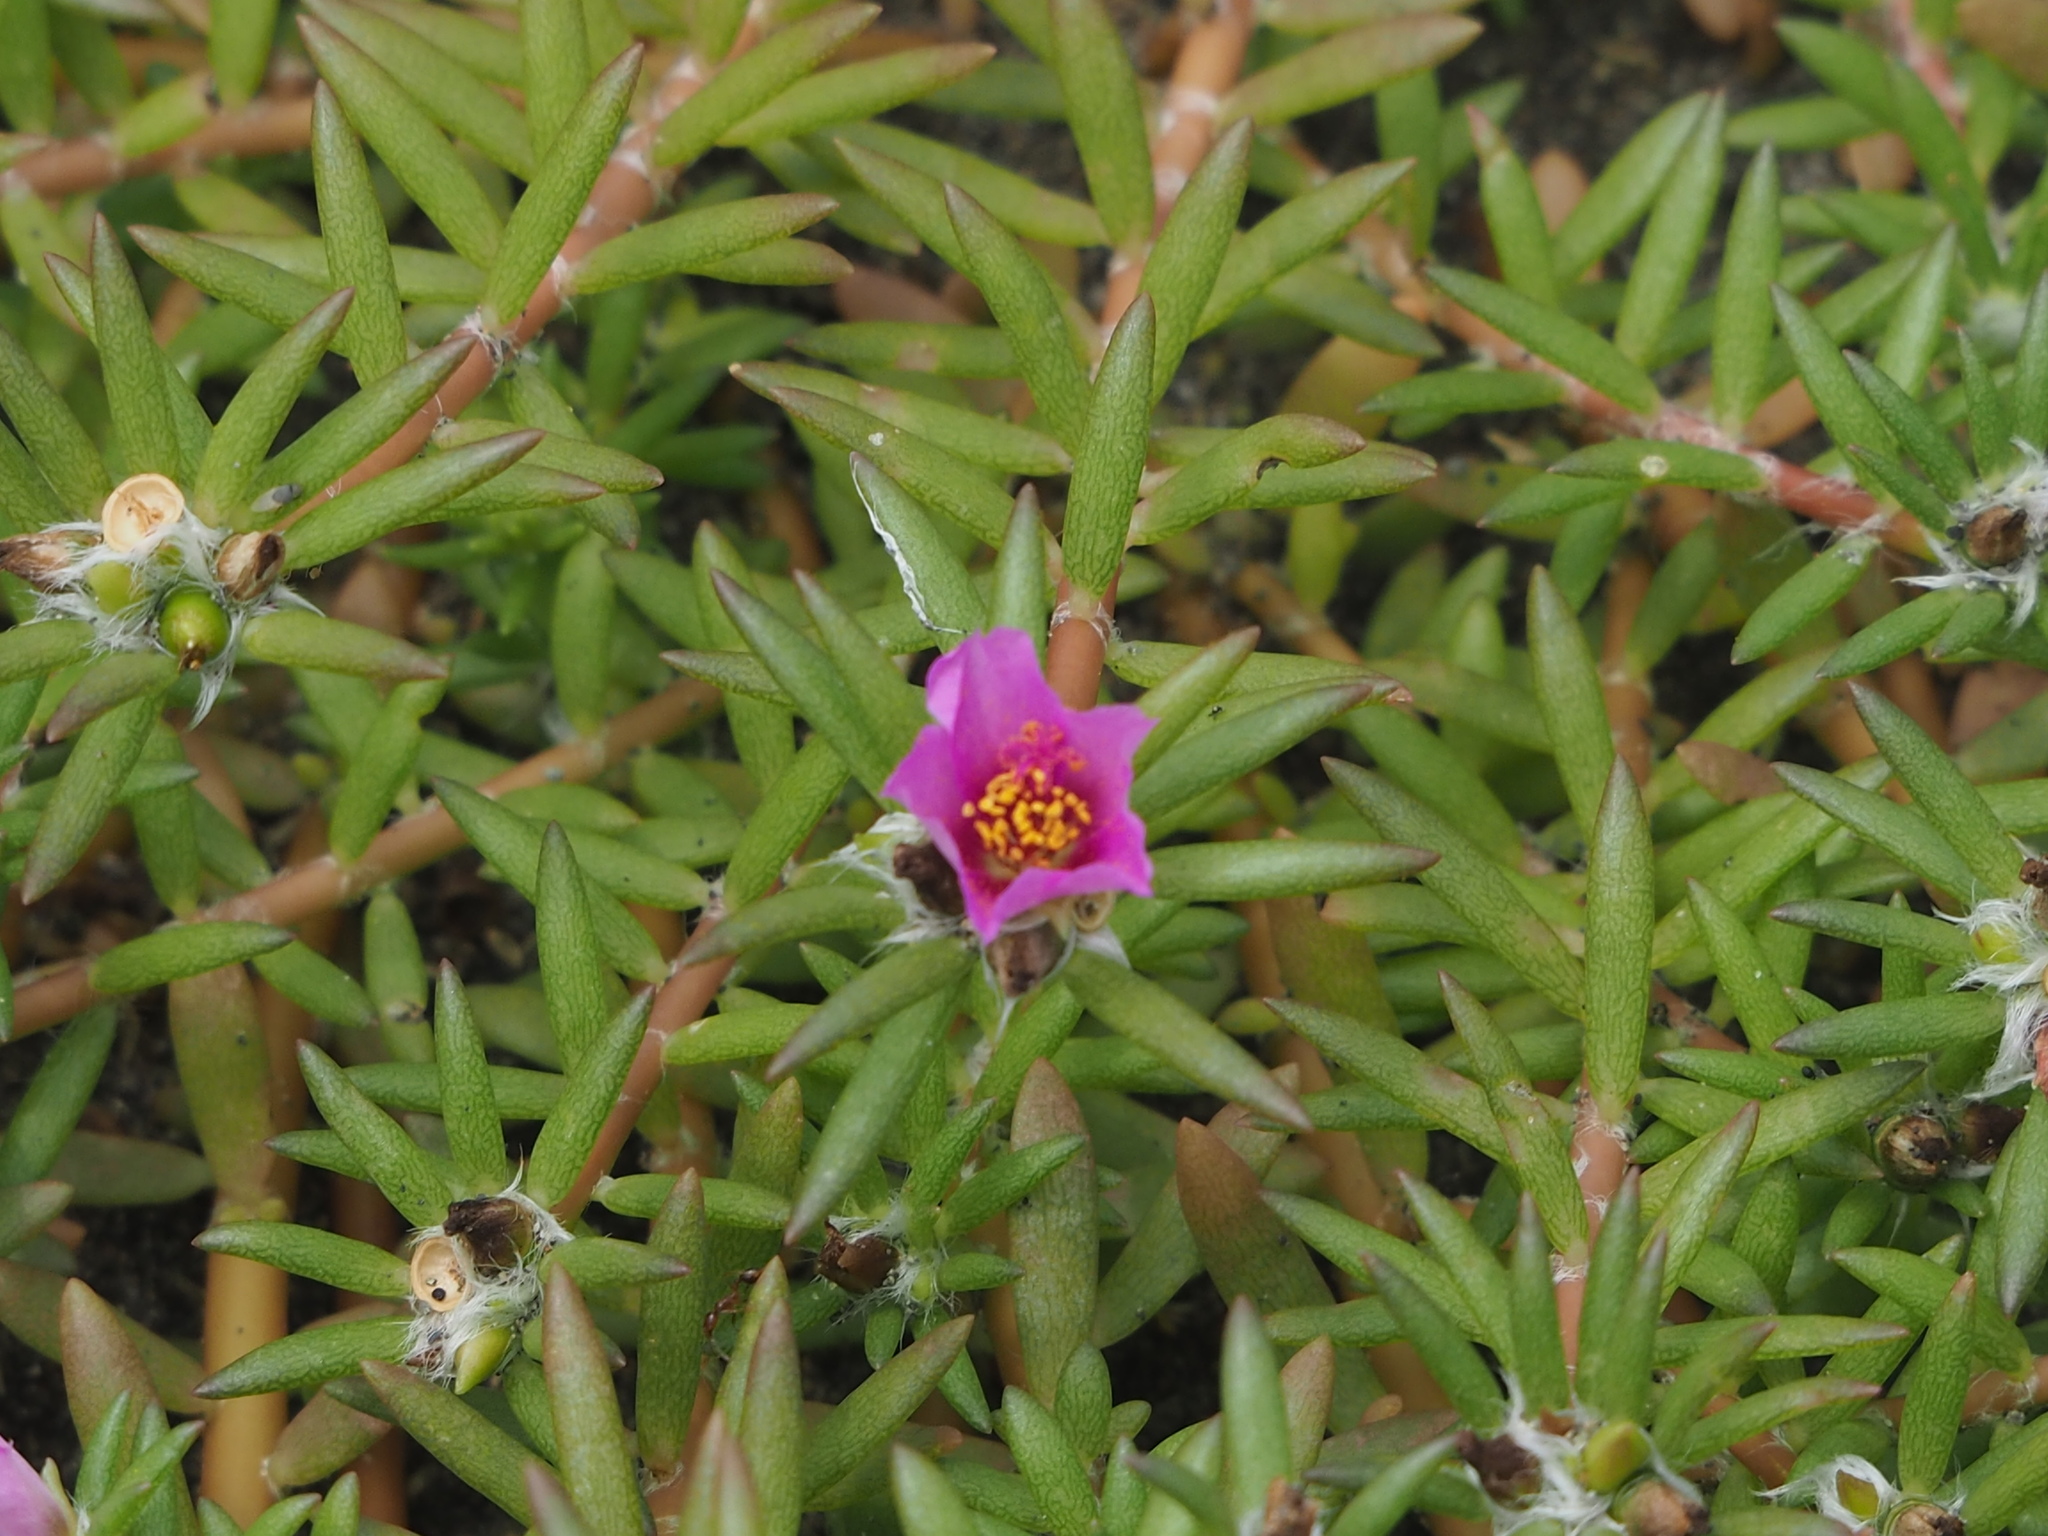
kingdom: Plantae
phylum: Tracheophyta
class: Magnoliopsida
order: Caryophyllales
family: Portulacaceae
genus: Portulaca
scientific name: Portulaca pilosa
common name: Kiss me quick
